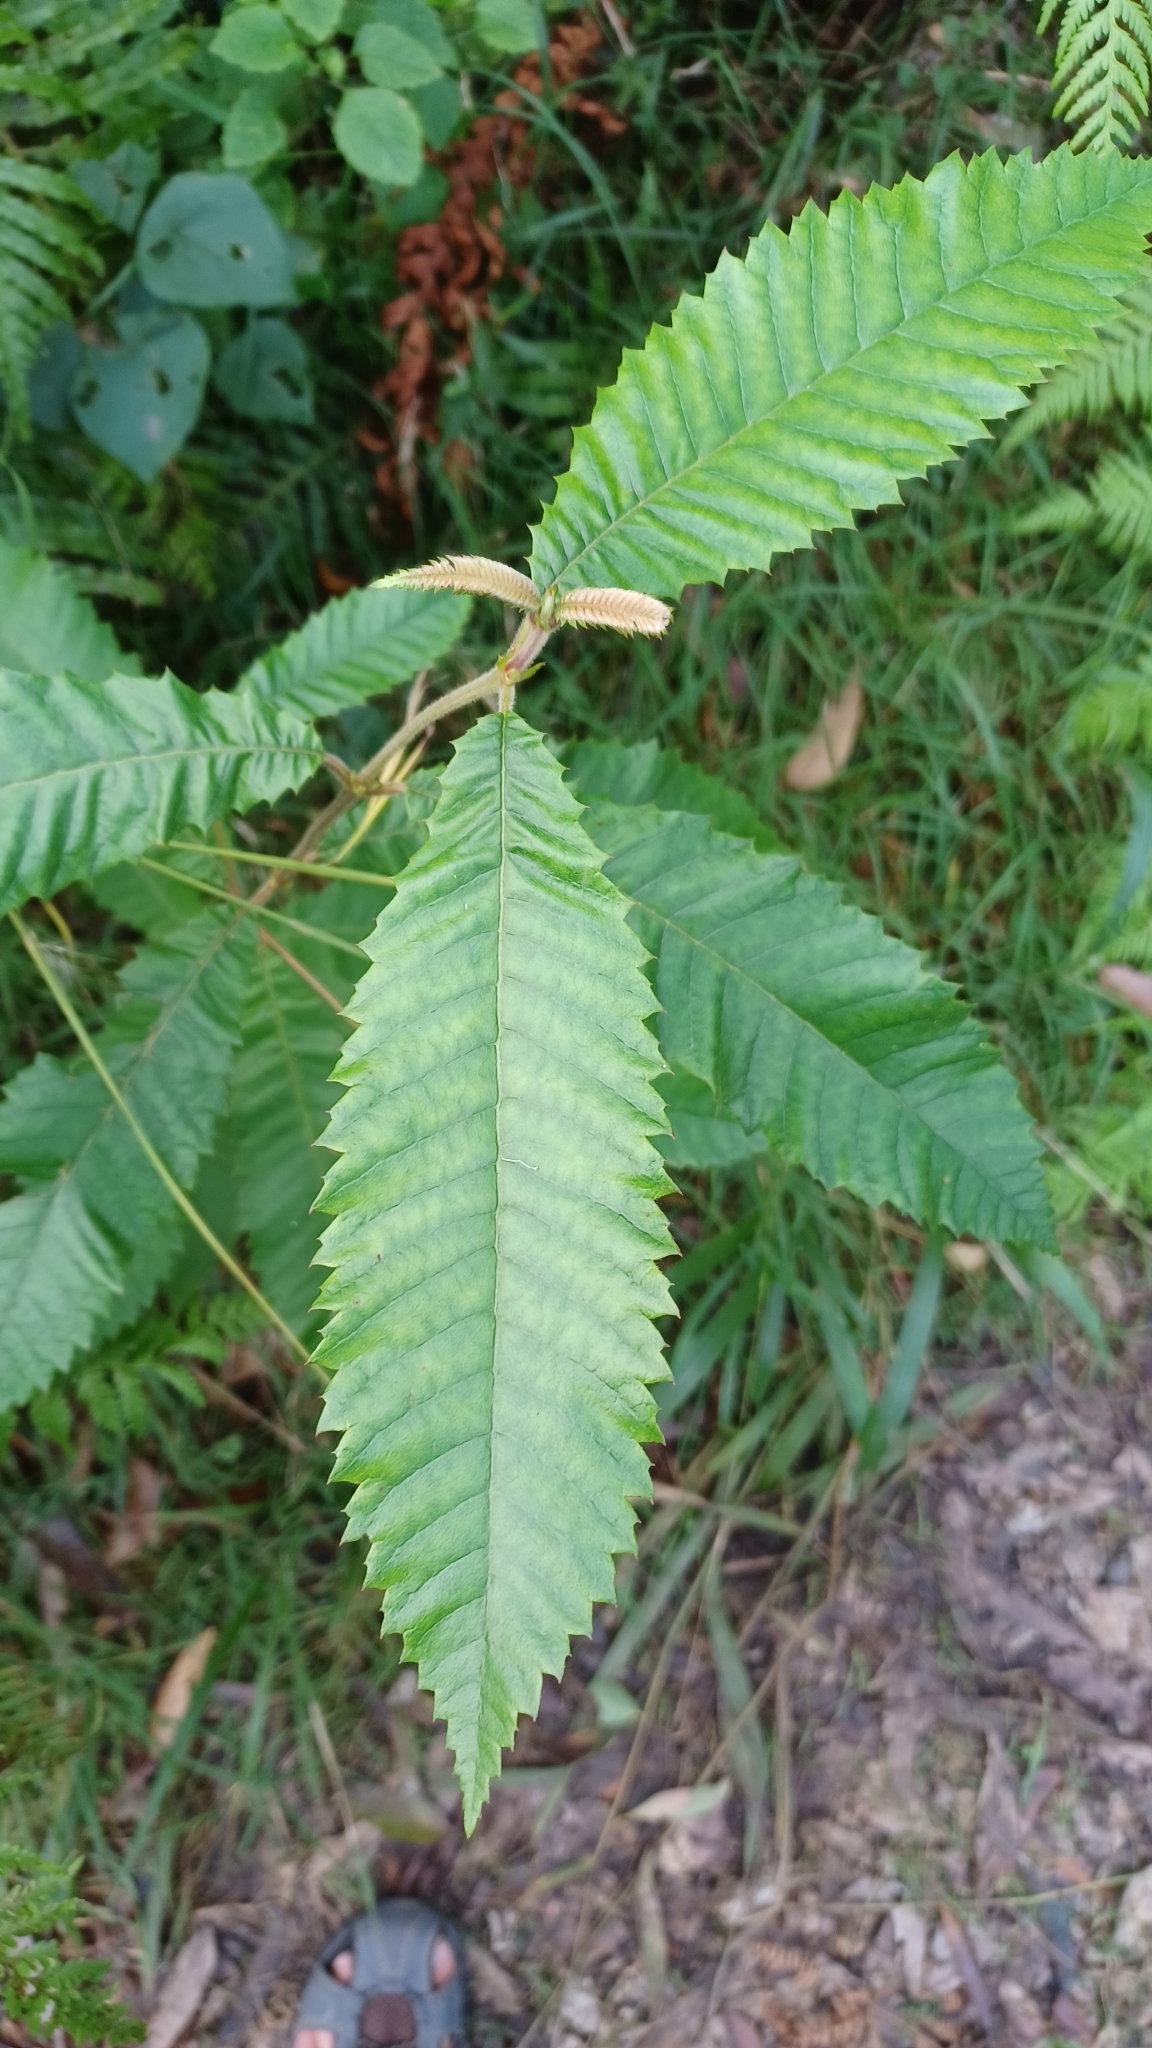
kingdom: Plantae
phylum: Tracheophyta
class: Magnoliopsida
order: Oxalidales
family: Cunoniaceae
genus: Callicoma
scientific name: Callicoma serratifolia
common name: Black wattle
